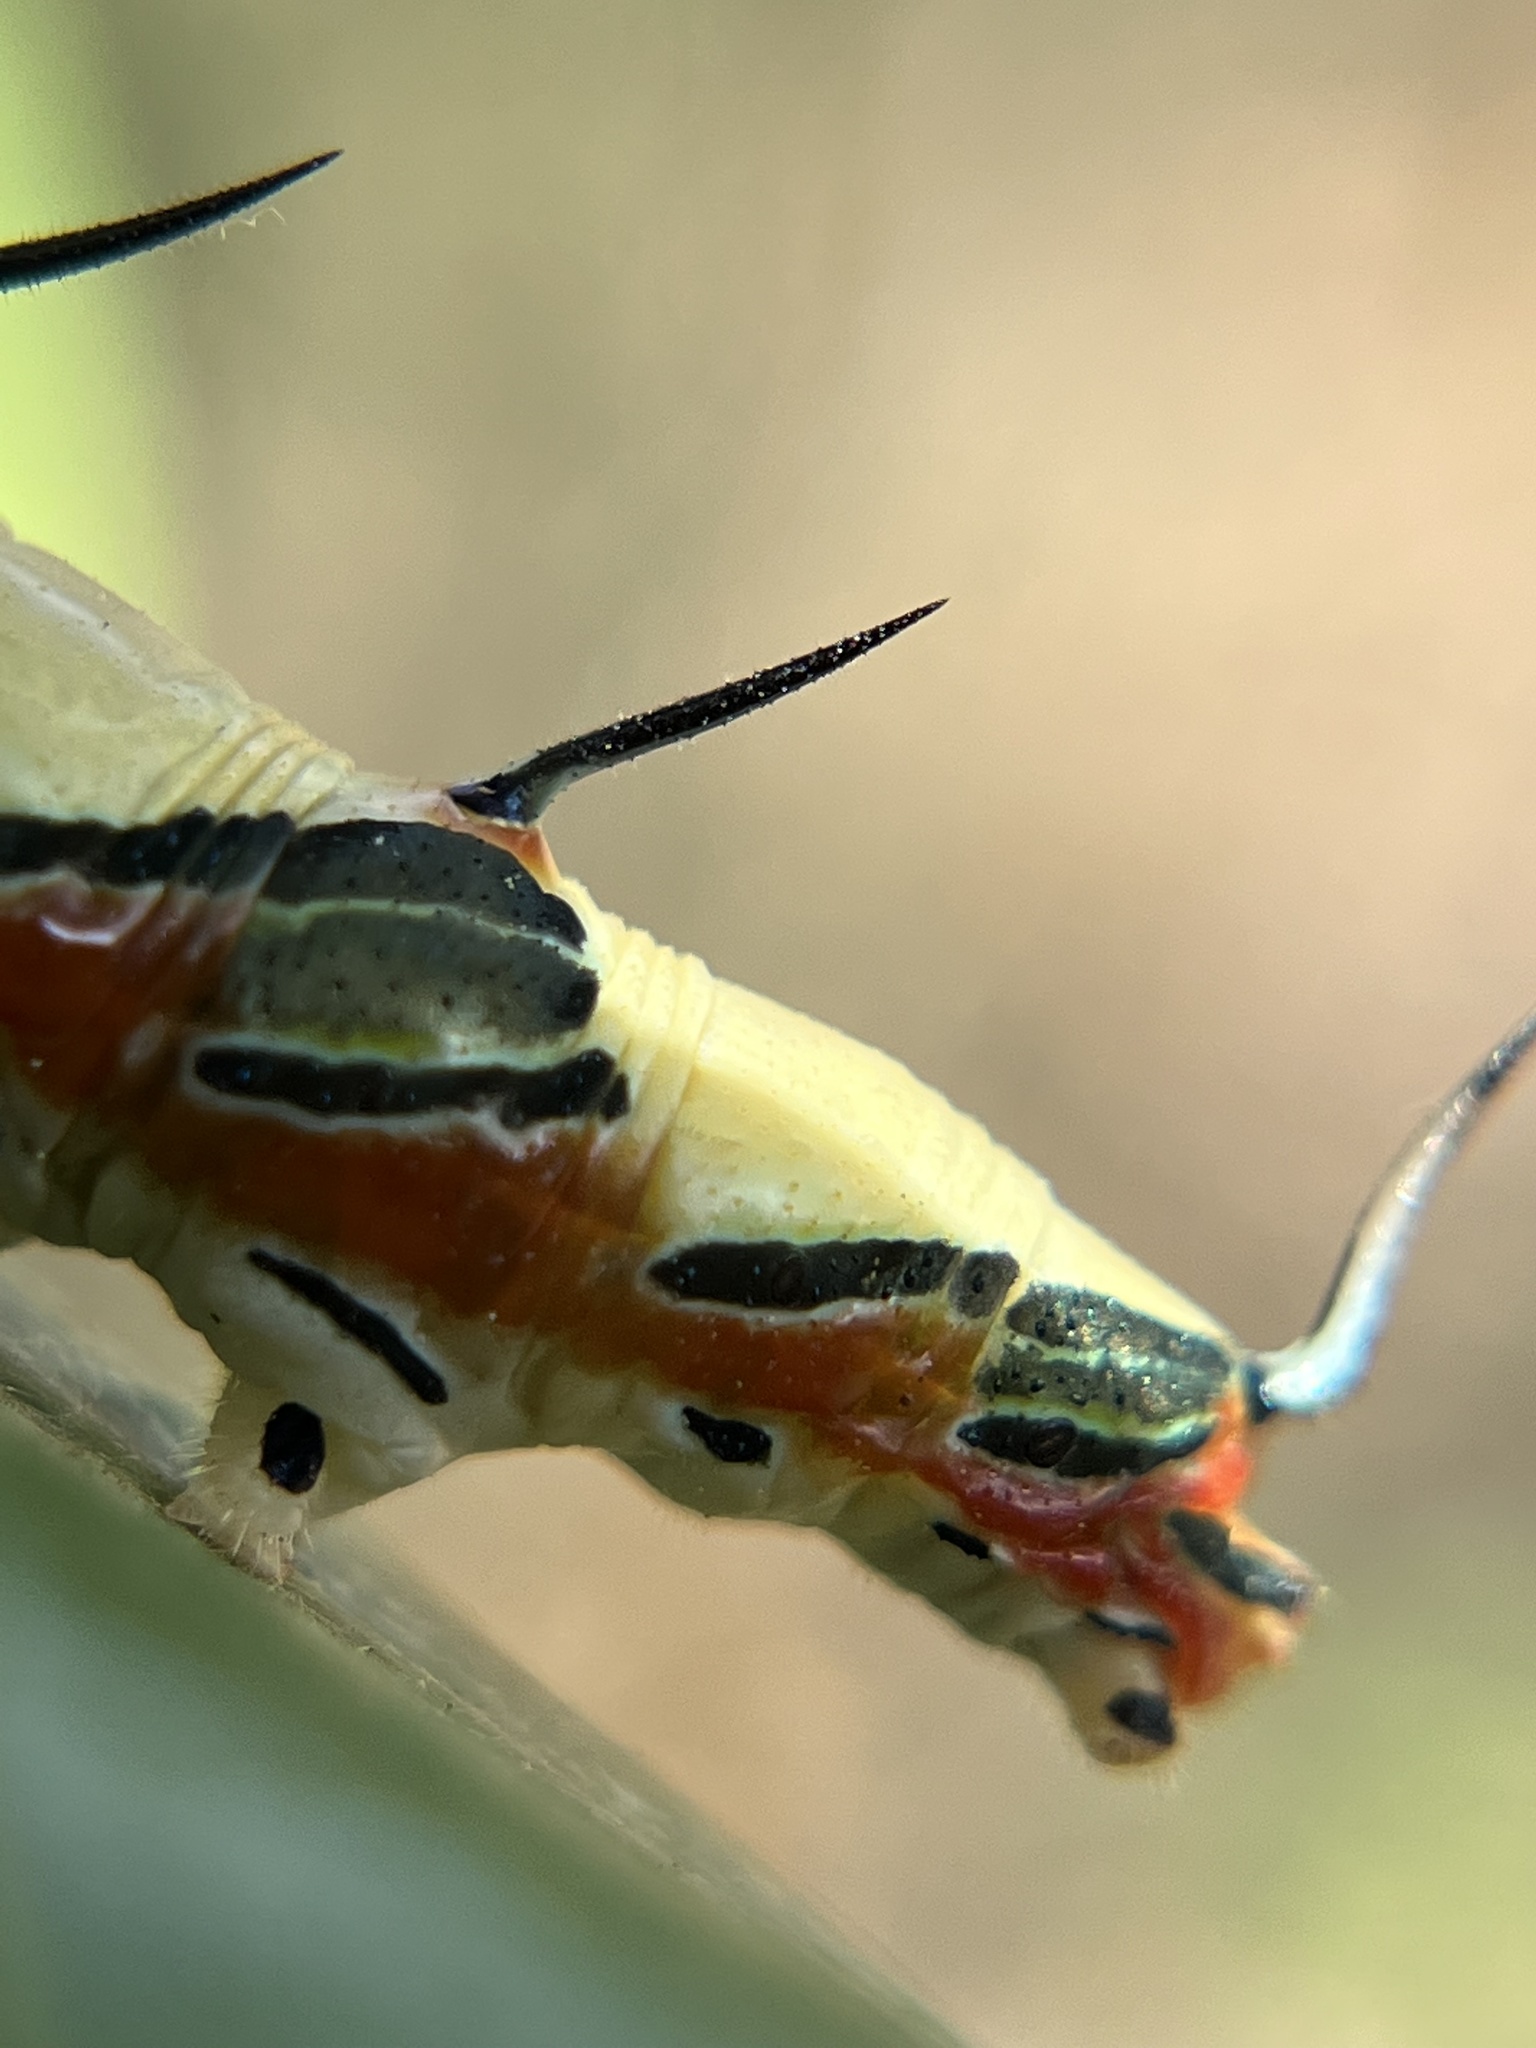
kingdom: Animalia
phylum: Arthropoda
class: Insecta
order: Lepidoptera
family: Nymphalidae
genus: Marpesia
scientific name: Marpesia petreus
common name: Red dagger wing
